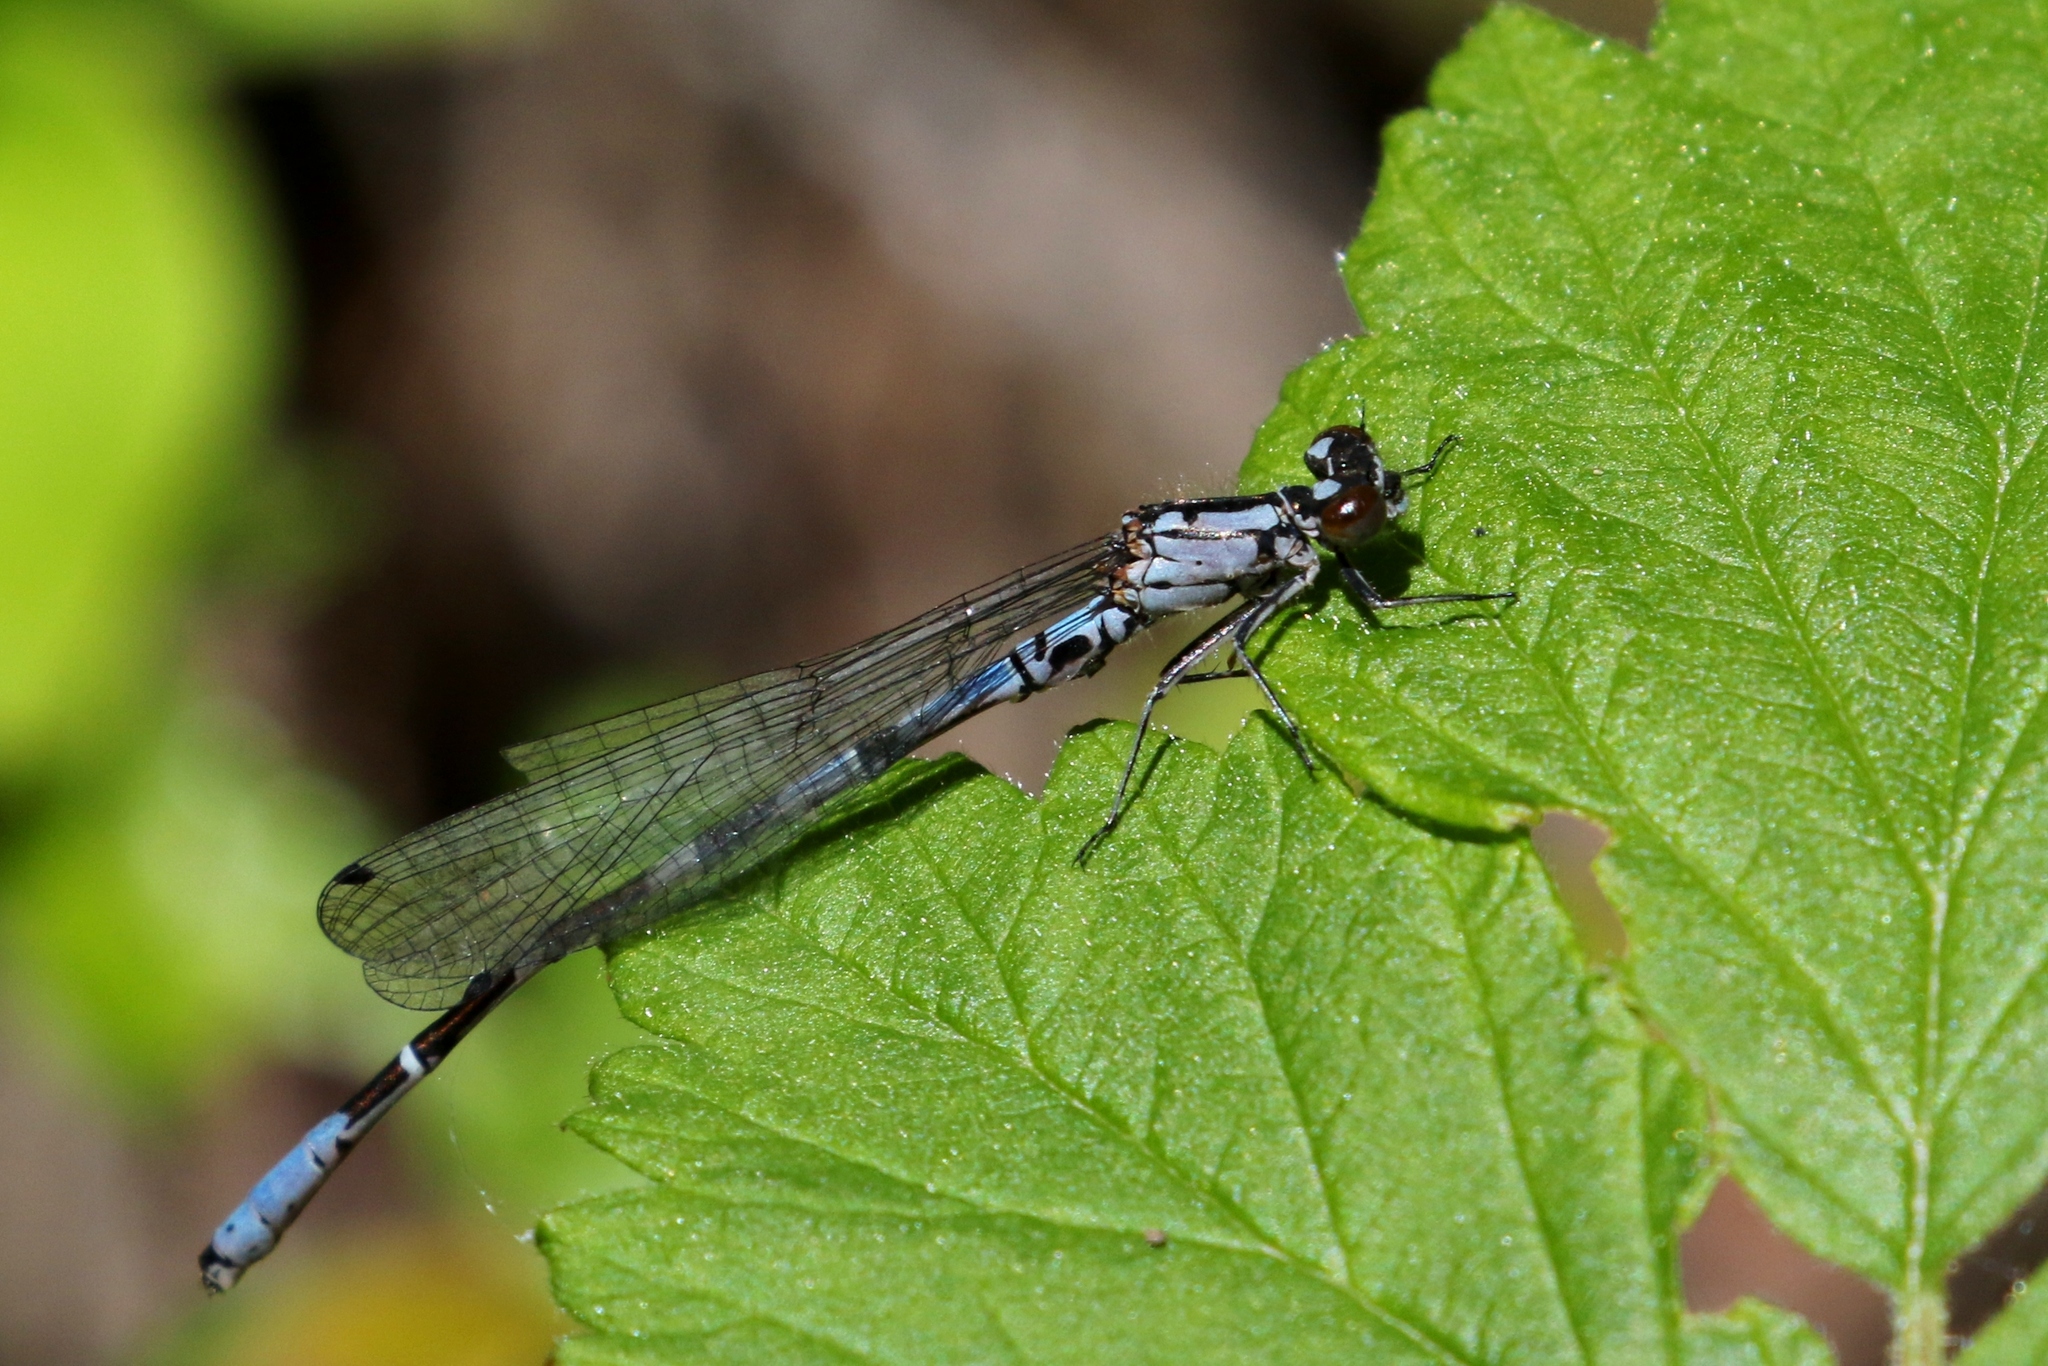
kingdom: Animalia
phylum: Arthropoda
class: Insecta
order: Odonata
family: Coenagrionidae
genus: Coenagrion
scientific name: Coenagrion interrogatum
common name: Subarctic bluet
